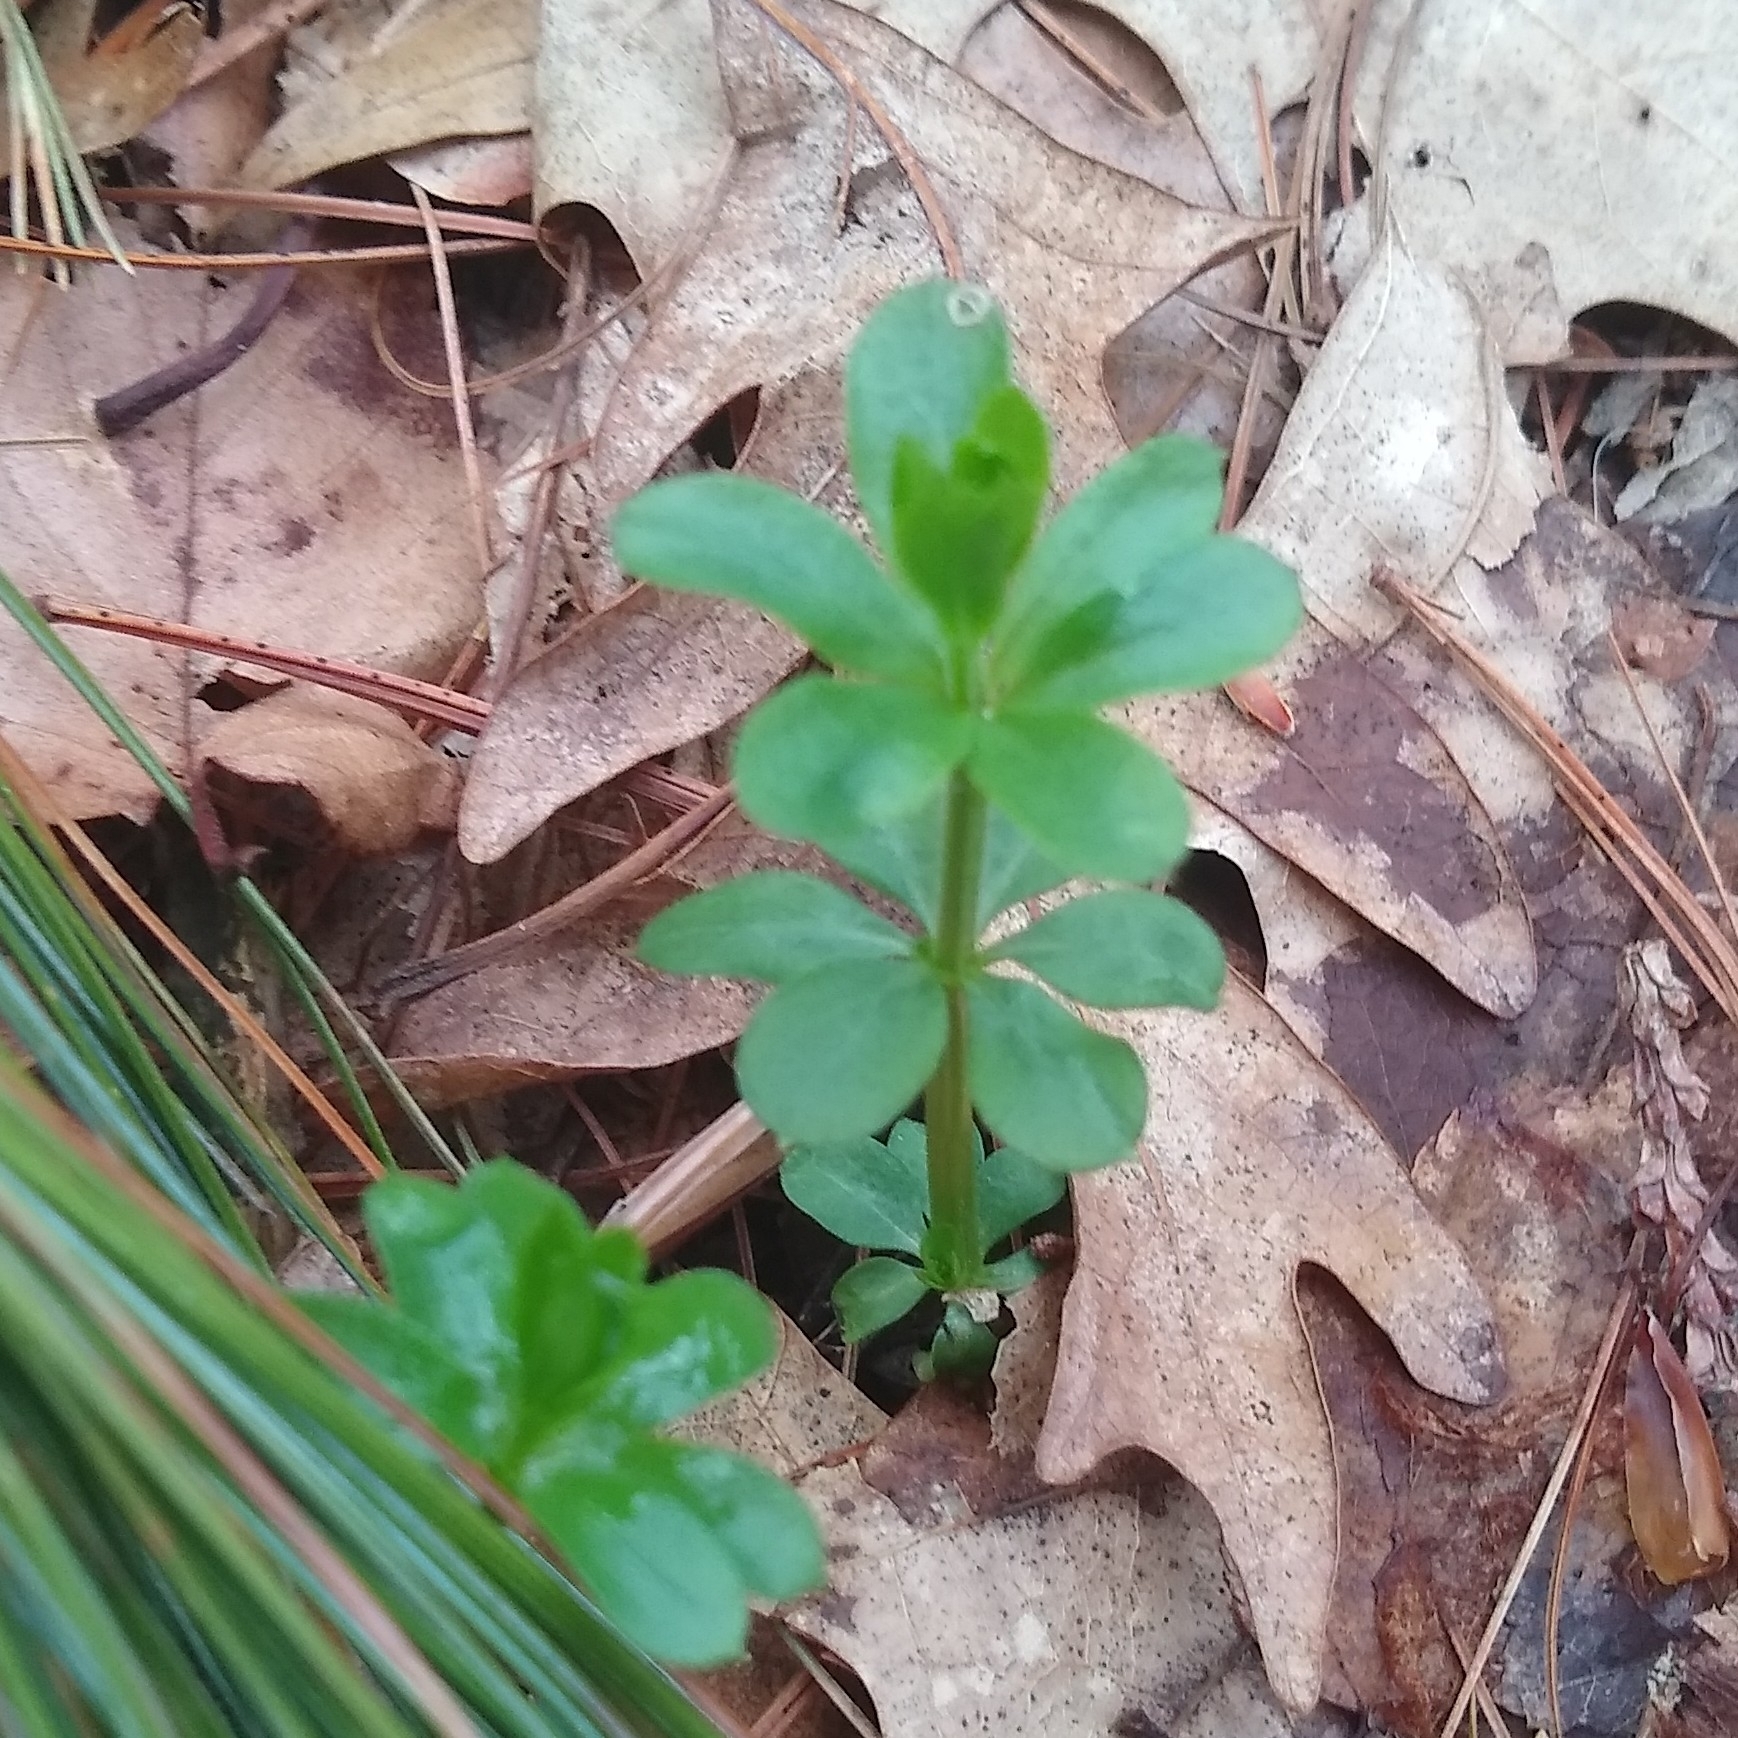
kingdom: Plantae
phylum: Tracheophyta
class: Magnoliopsida
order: Gentianales
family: Rubiaceae
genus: Galium
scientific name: Galium triflorum
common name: Fragrant bedstraw
